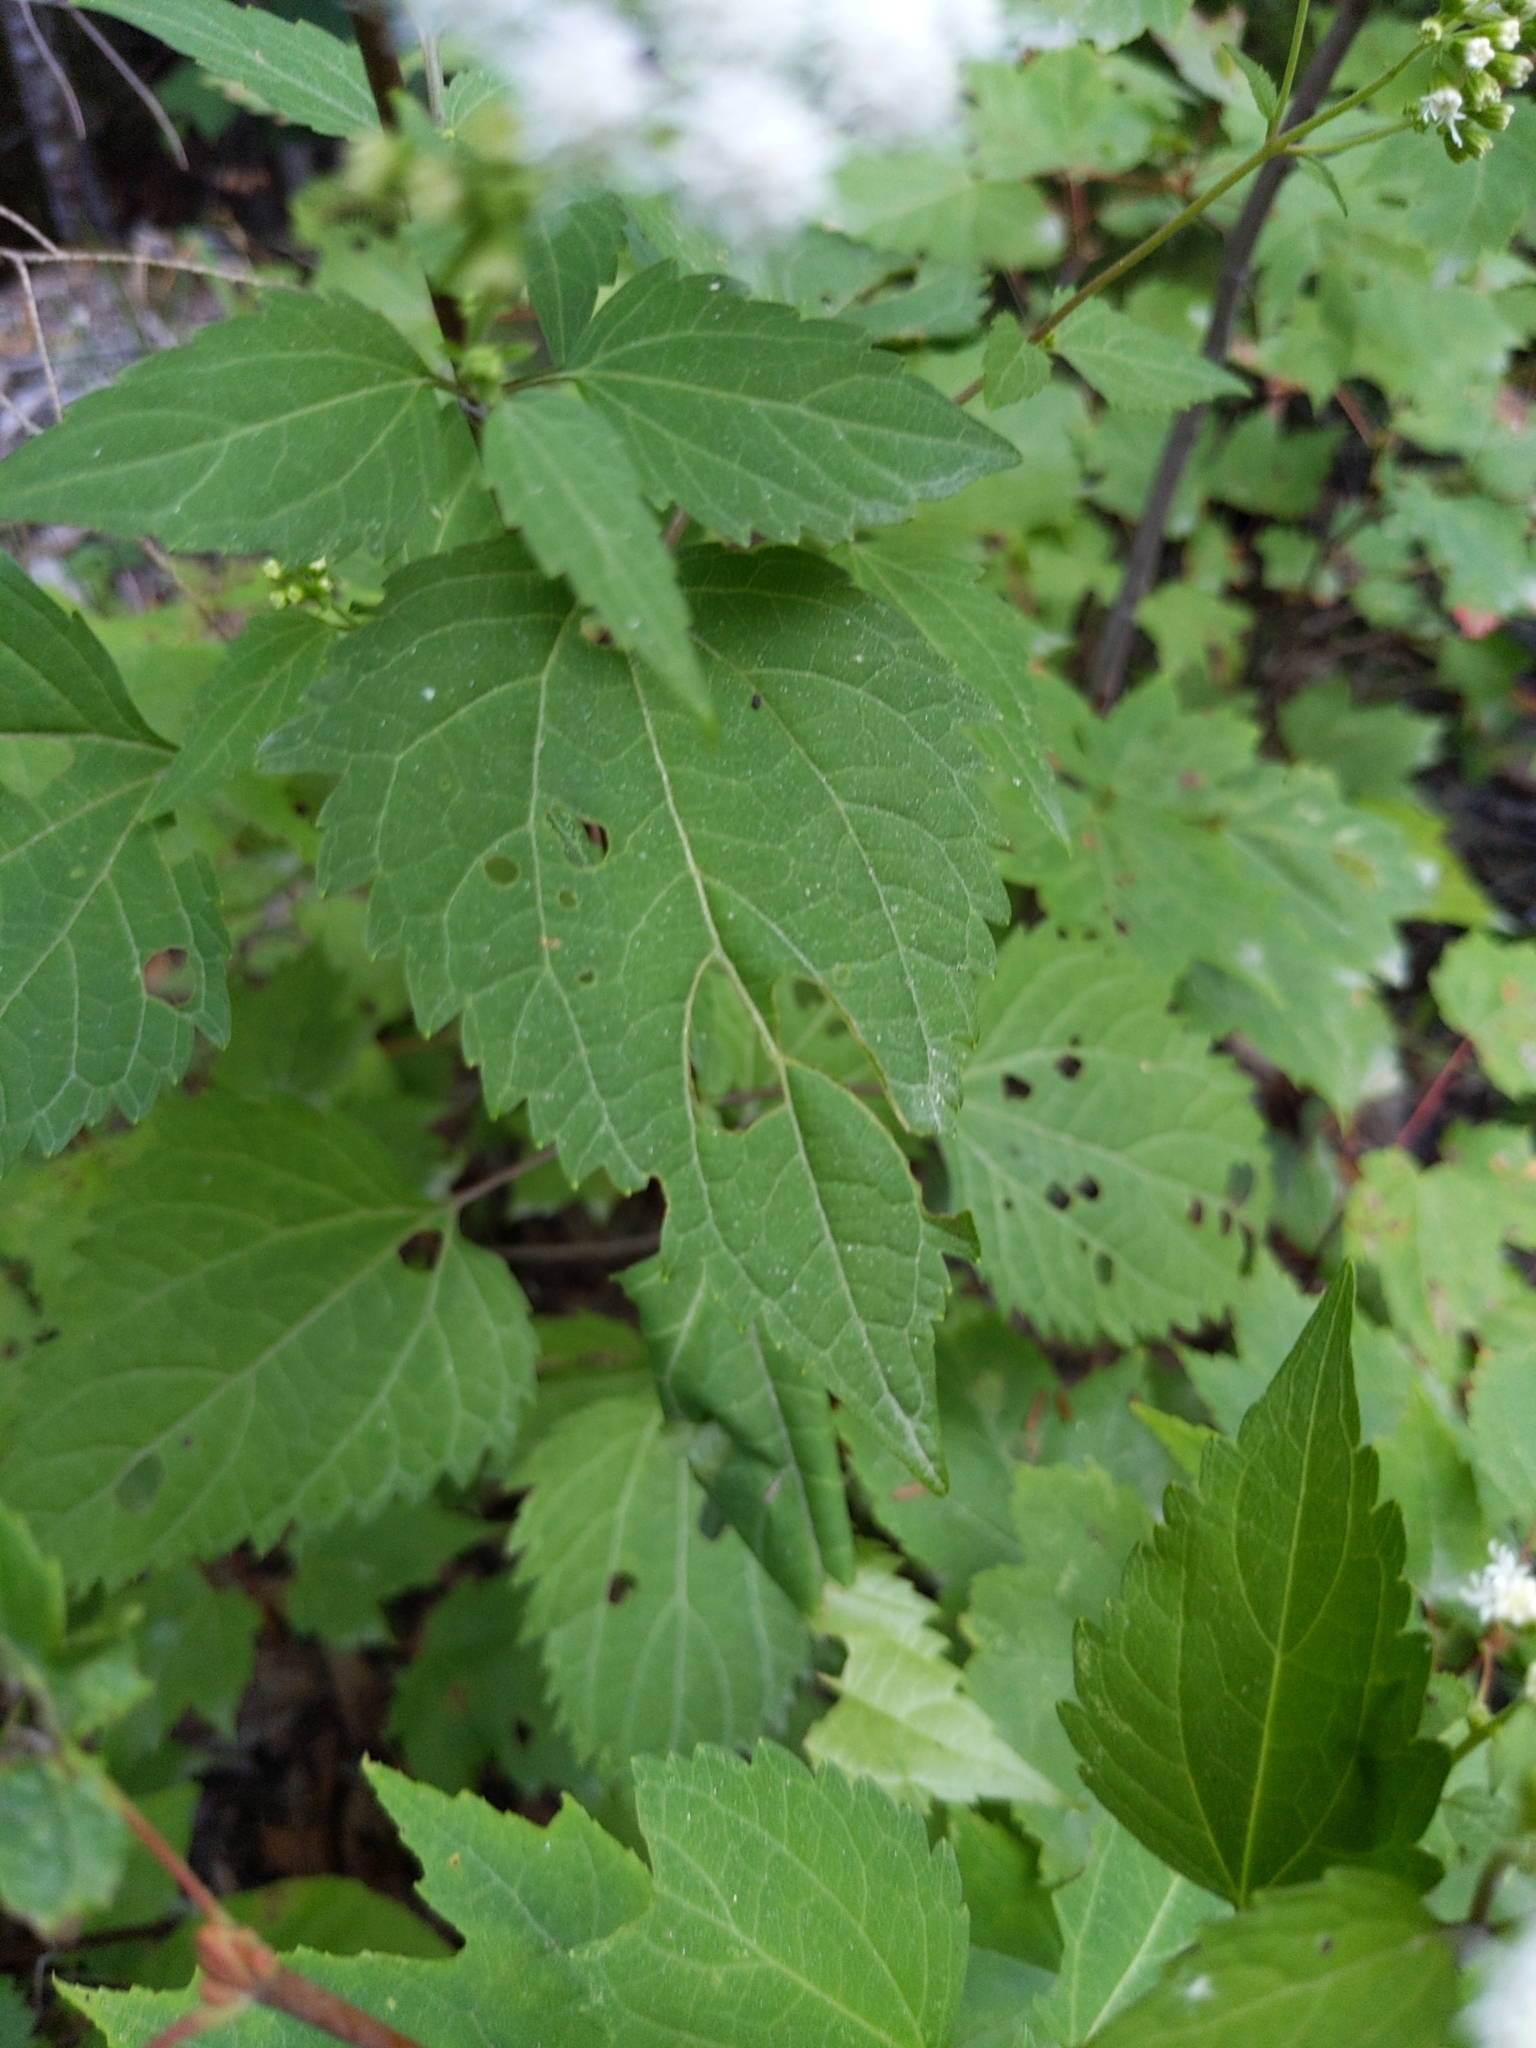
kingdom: Plantae
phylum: Tracheophyta
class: Magnoliopsida
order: Asterales
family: Asteraceae
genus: Ageratina
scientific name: Ageratina altissima
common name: White snakeroot
